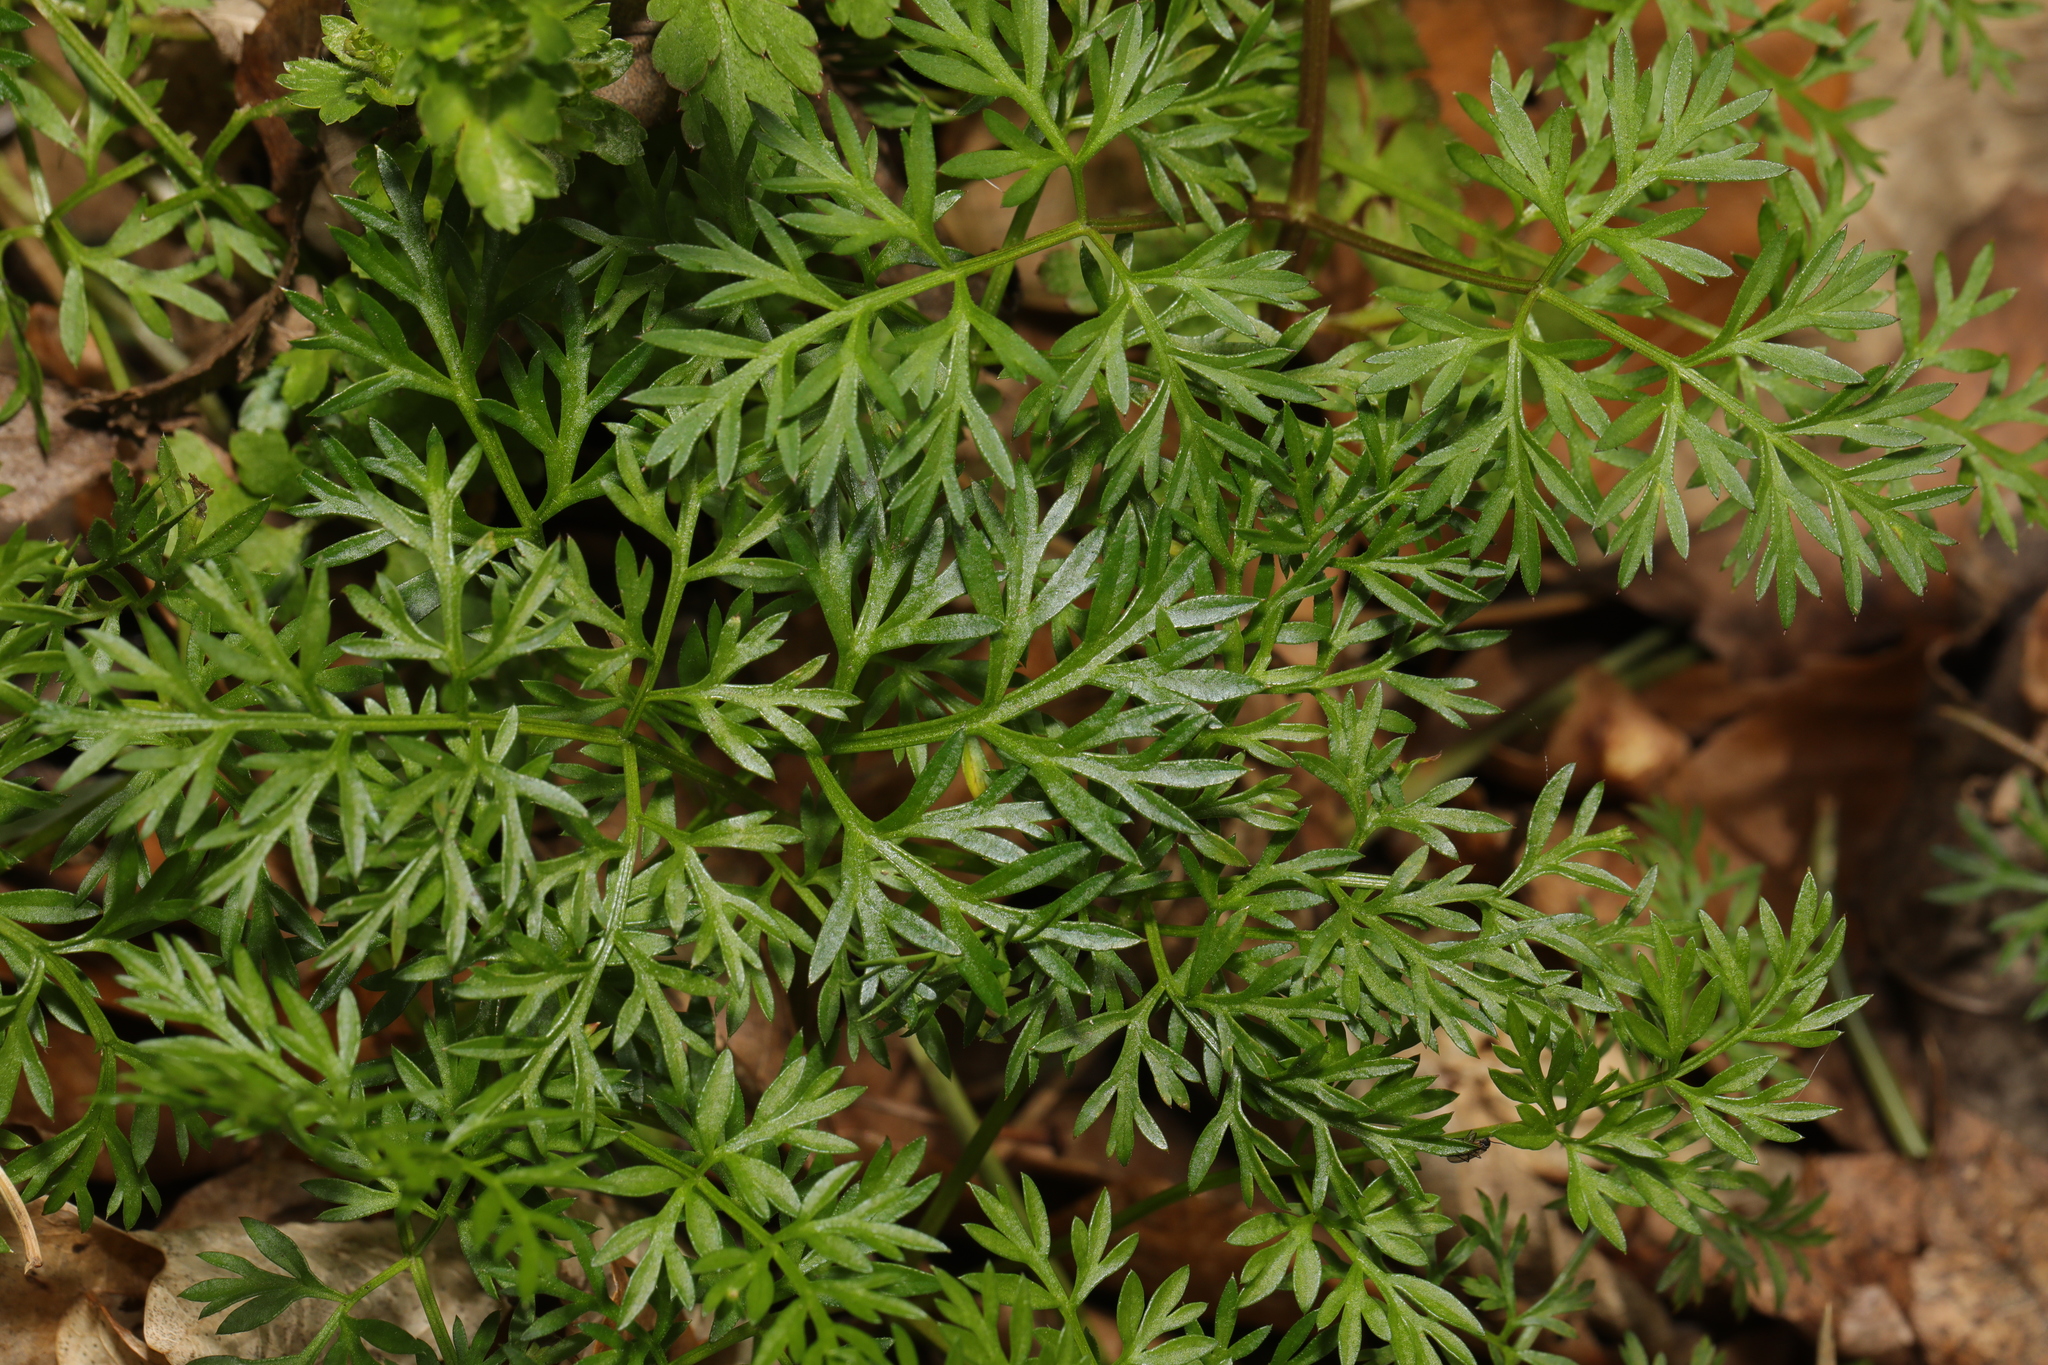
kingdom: Plantae
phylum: Tracheophyta
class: Magnoliopsida
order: Apiales
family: Apiaceae
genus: Conopodium
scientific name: Conopodium majus
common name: Pignut
